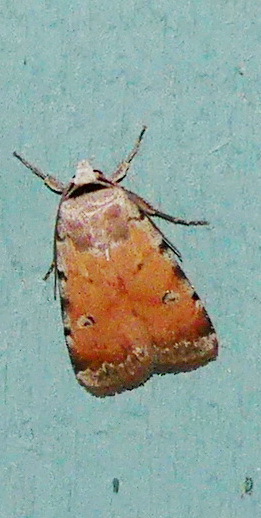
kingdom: Animalia
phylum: Arthropoda
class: Insecta
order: Lepidoptera
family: Noctuidae
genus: Anicla
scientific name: Anicla illapsa
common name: Snowy dart
